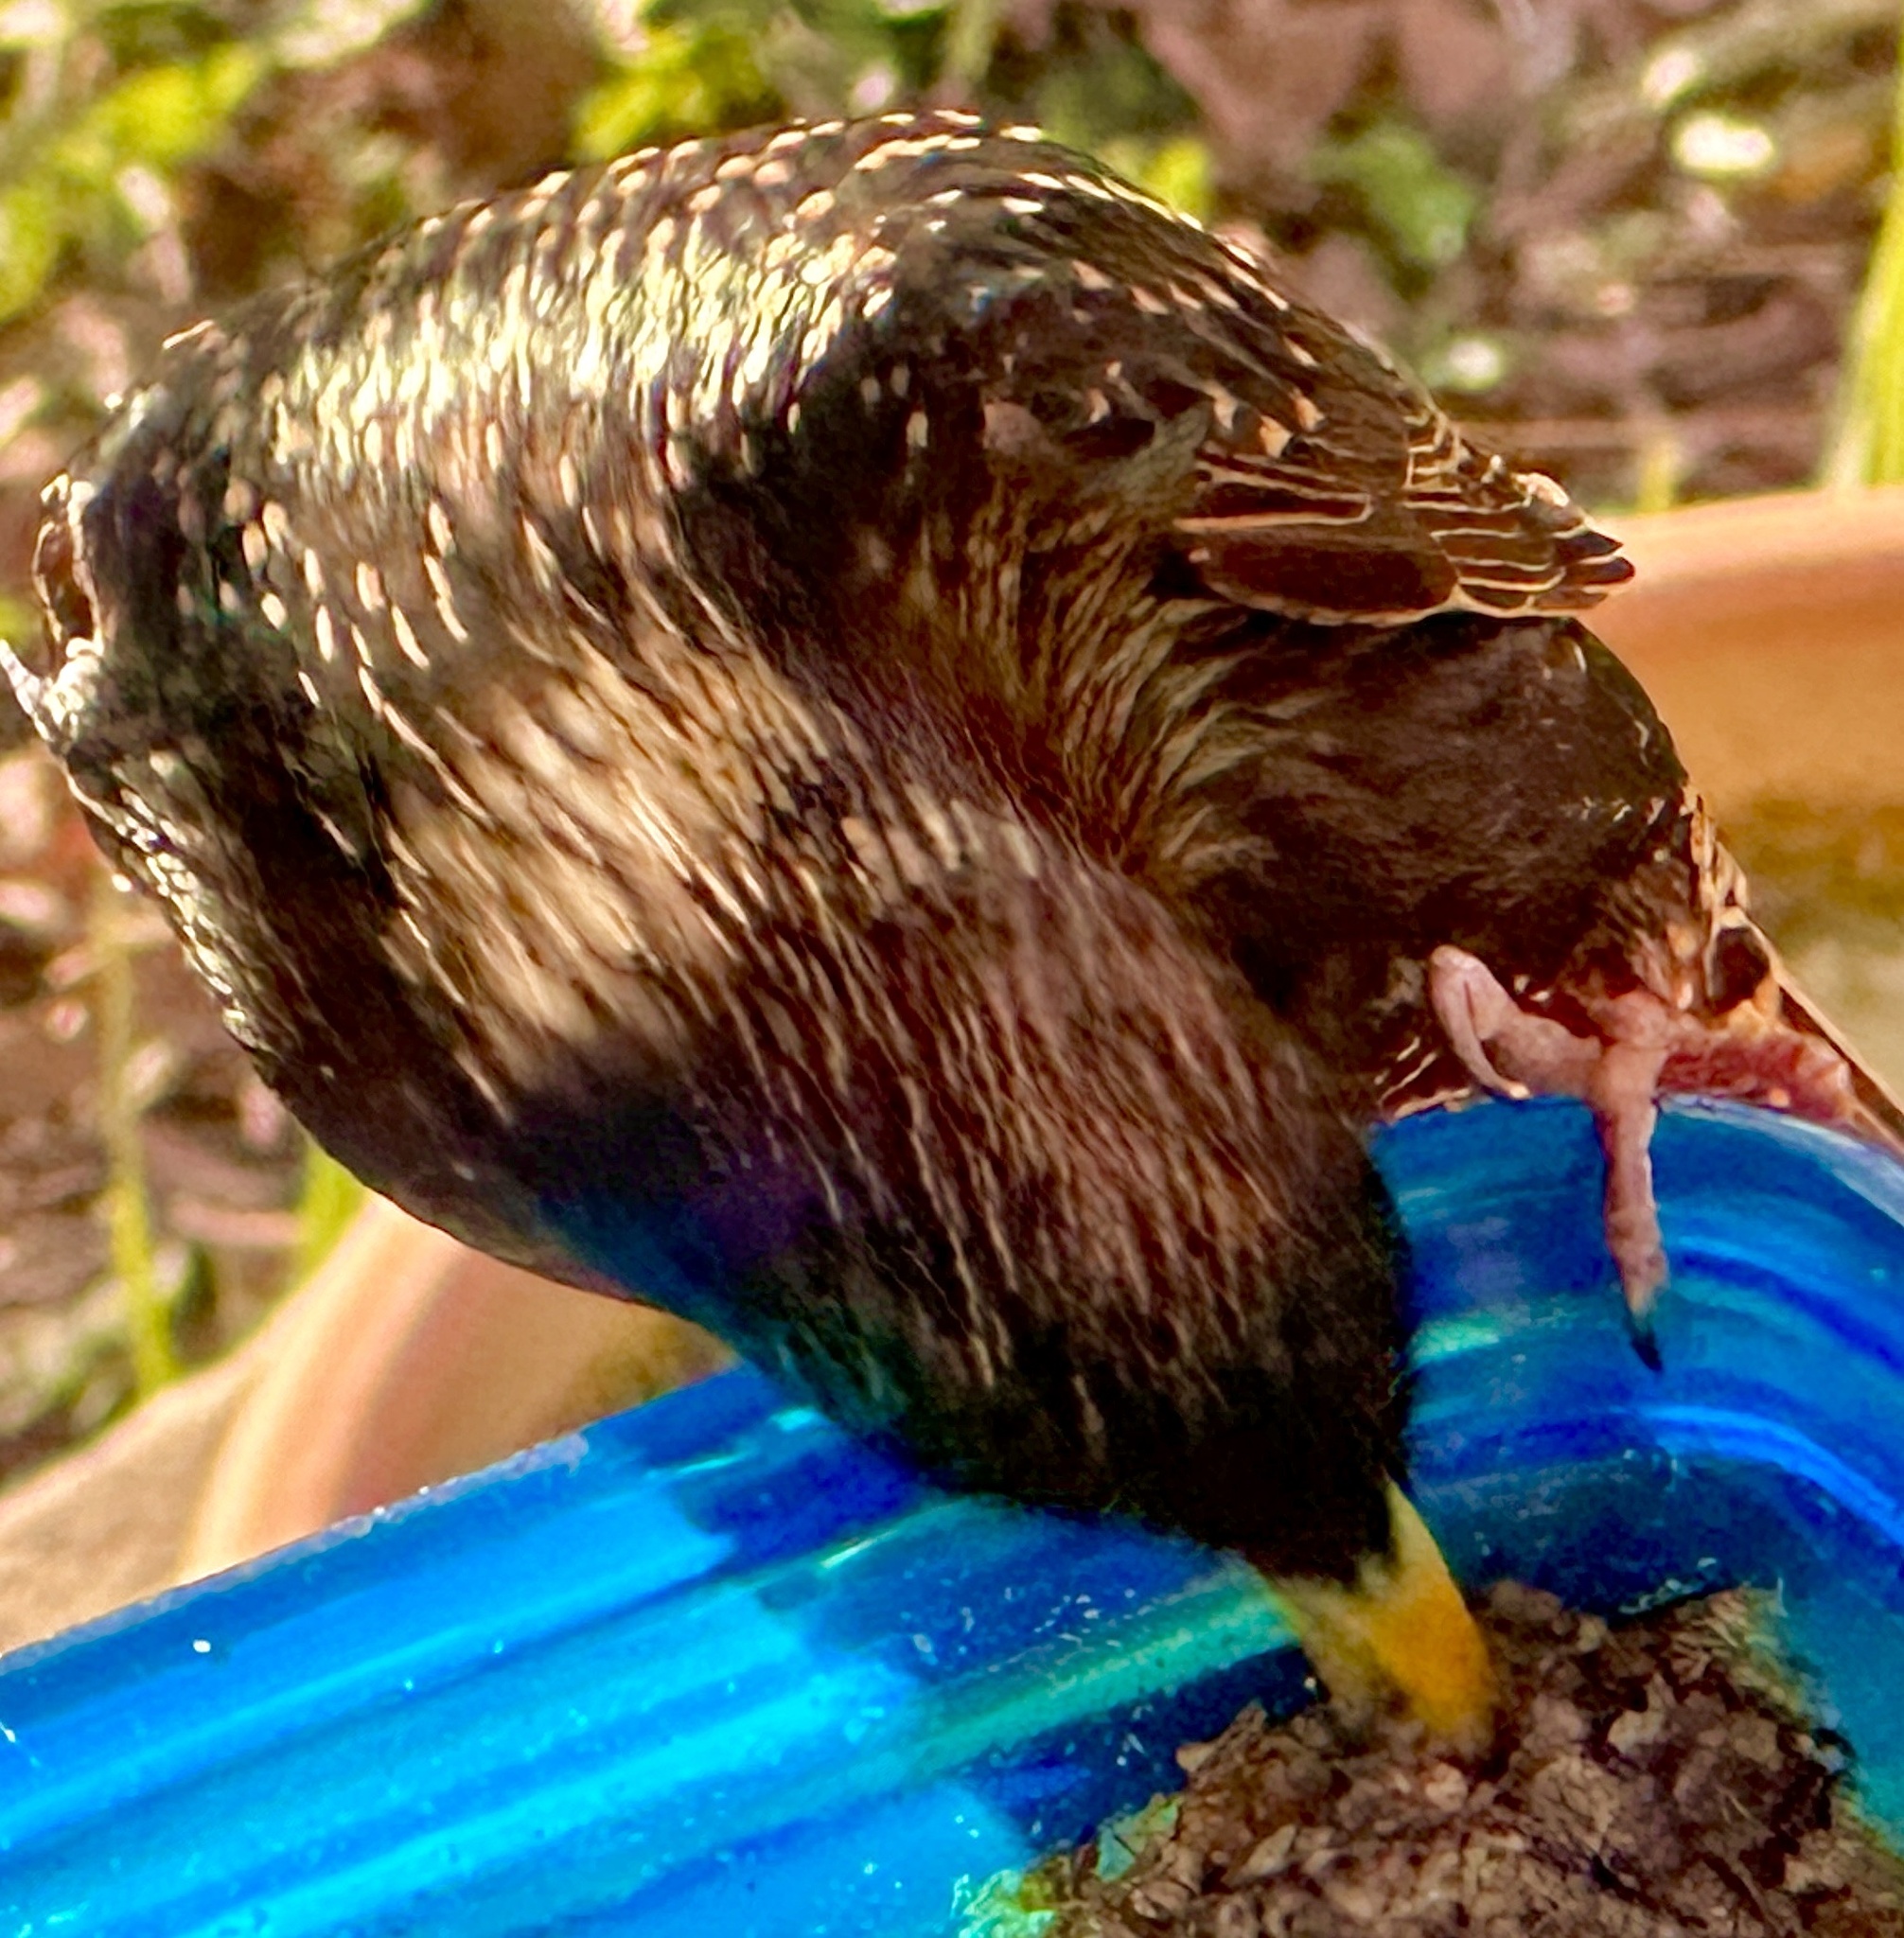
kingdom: Animalia
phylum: Chordata
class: Aves
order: Passeriformes
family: Sturnidae
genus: Sturnus
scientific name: Sturnus vulgaris
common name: Common starling
